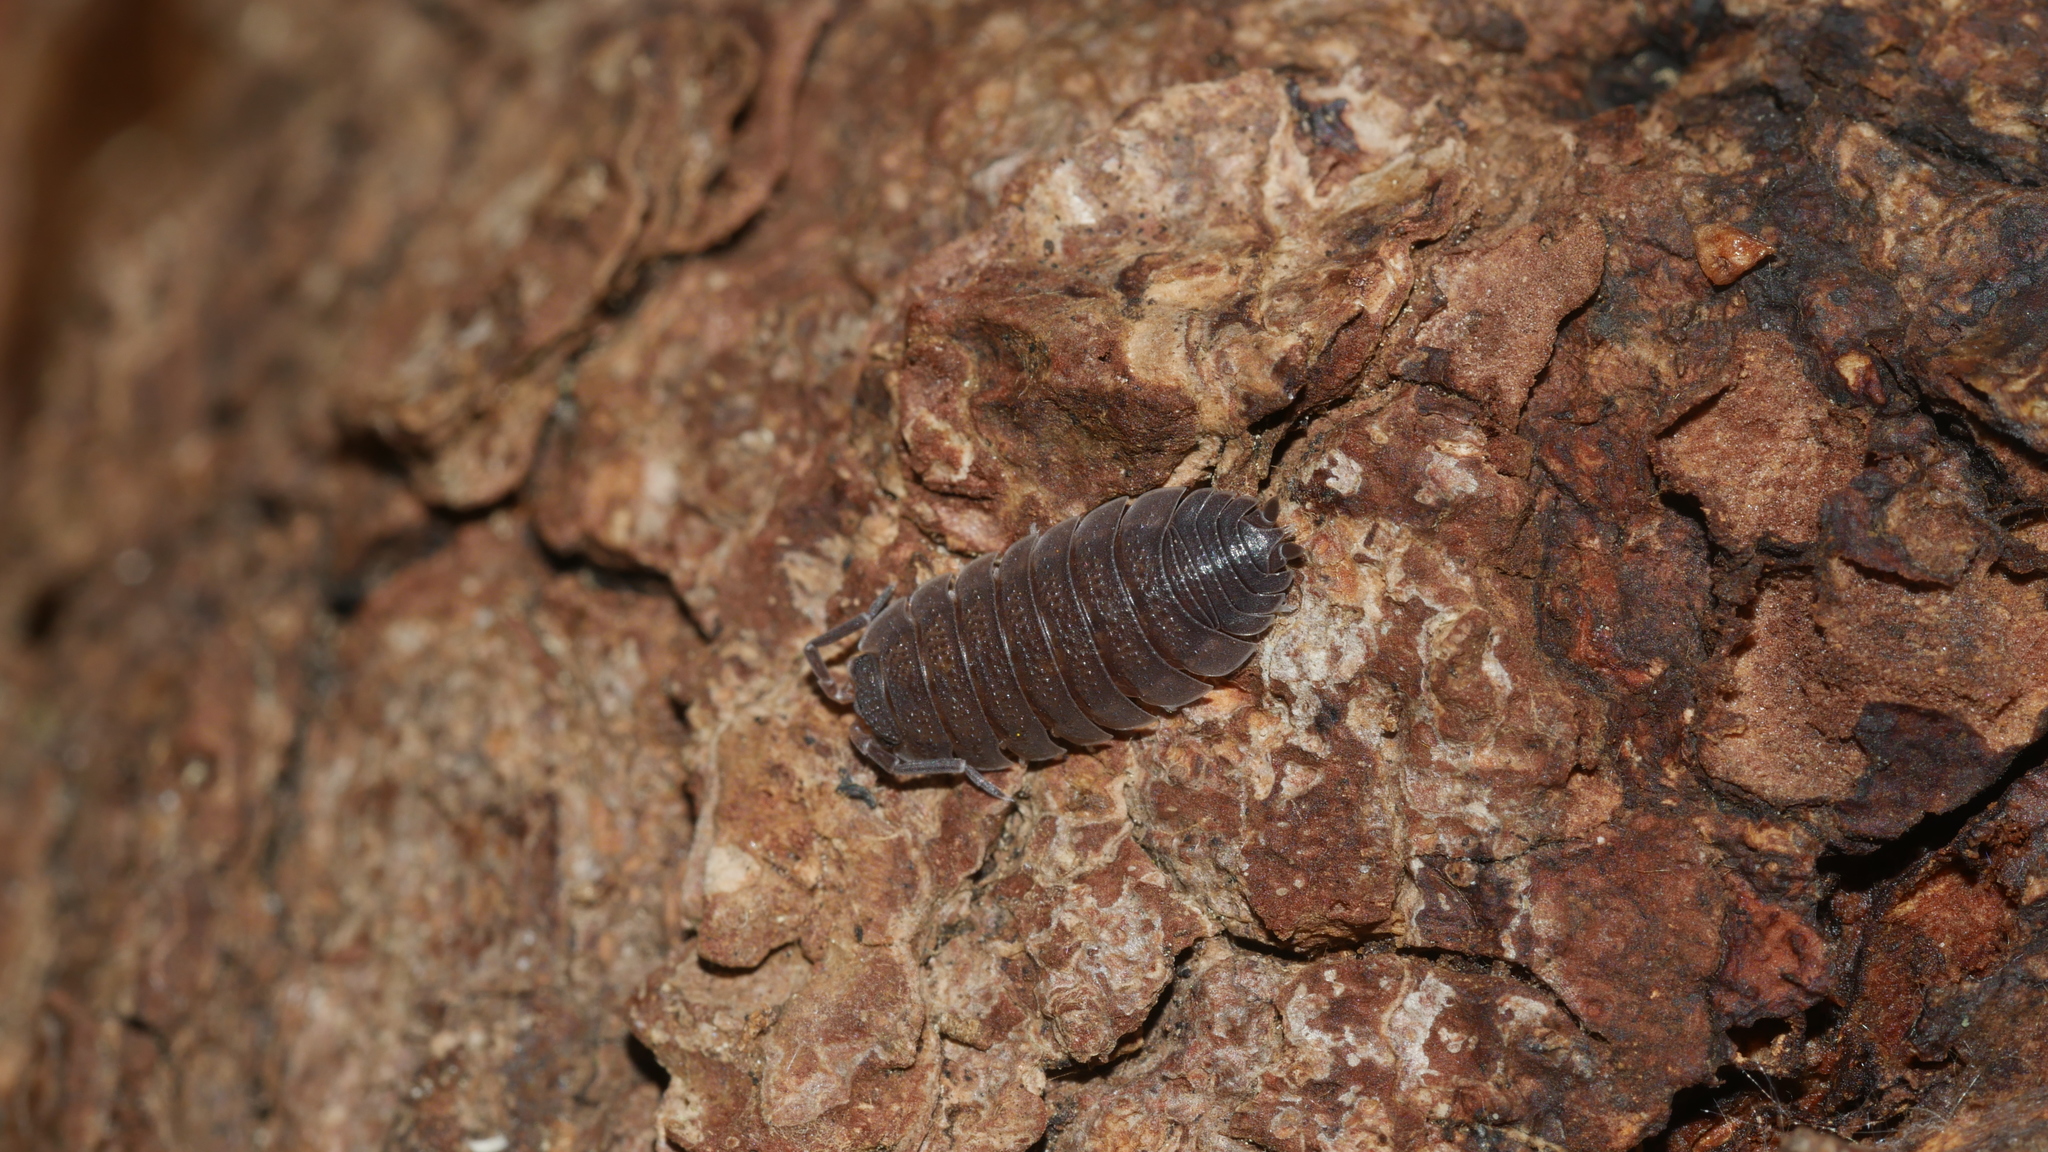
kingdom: Animalia
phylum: Arthropoda
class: Malacostraca
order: Isopoda
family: Porcellionidae
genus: Porcellio
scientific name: Porcellio scaber
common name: Common rough woodlouse
